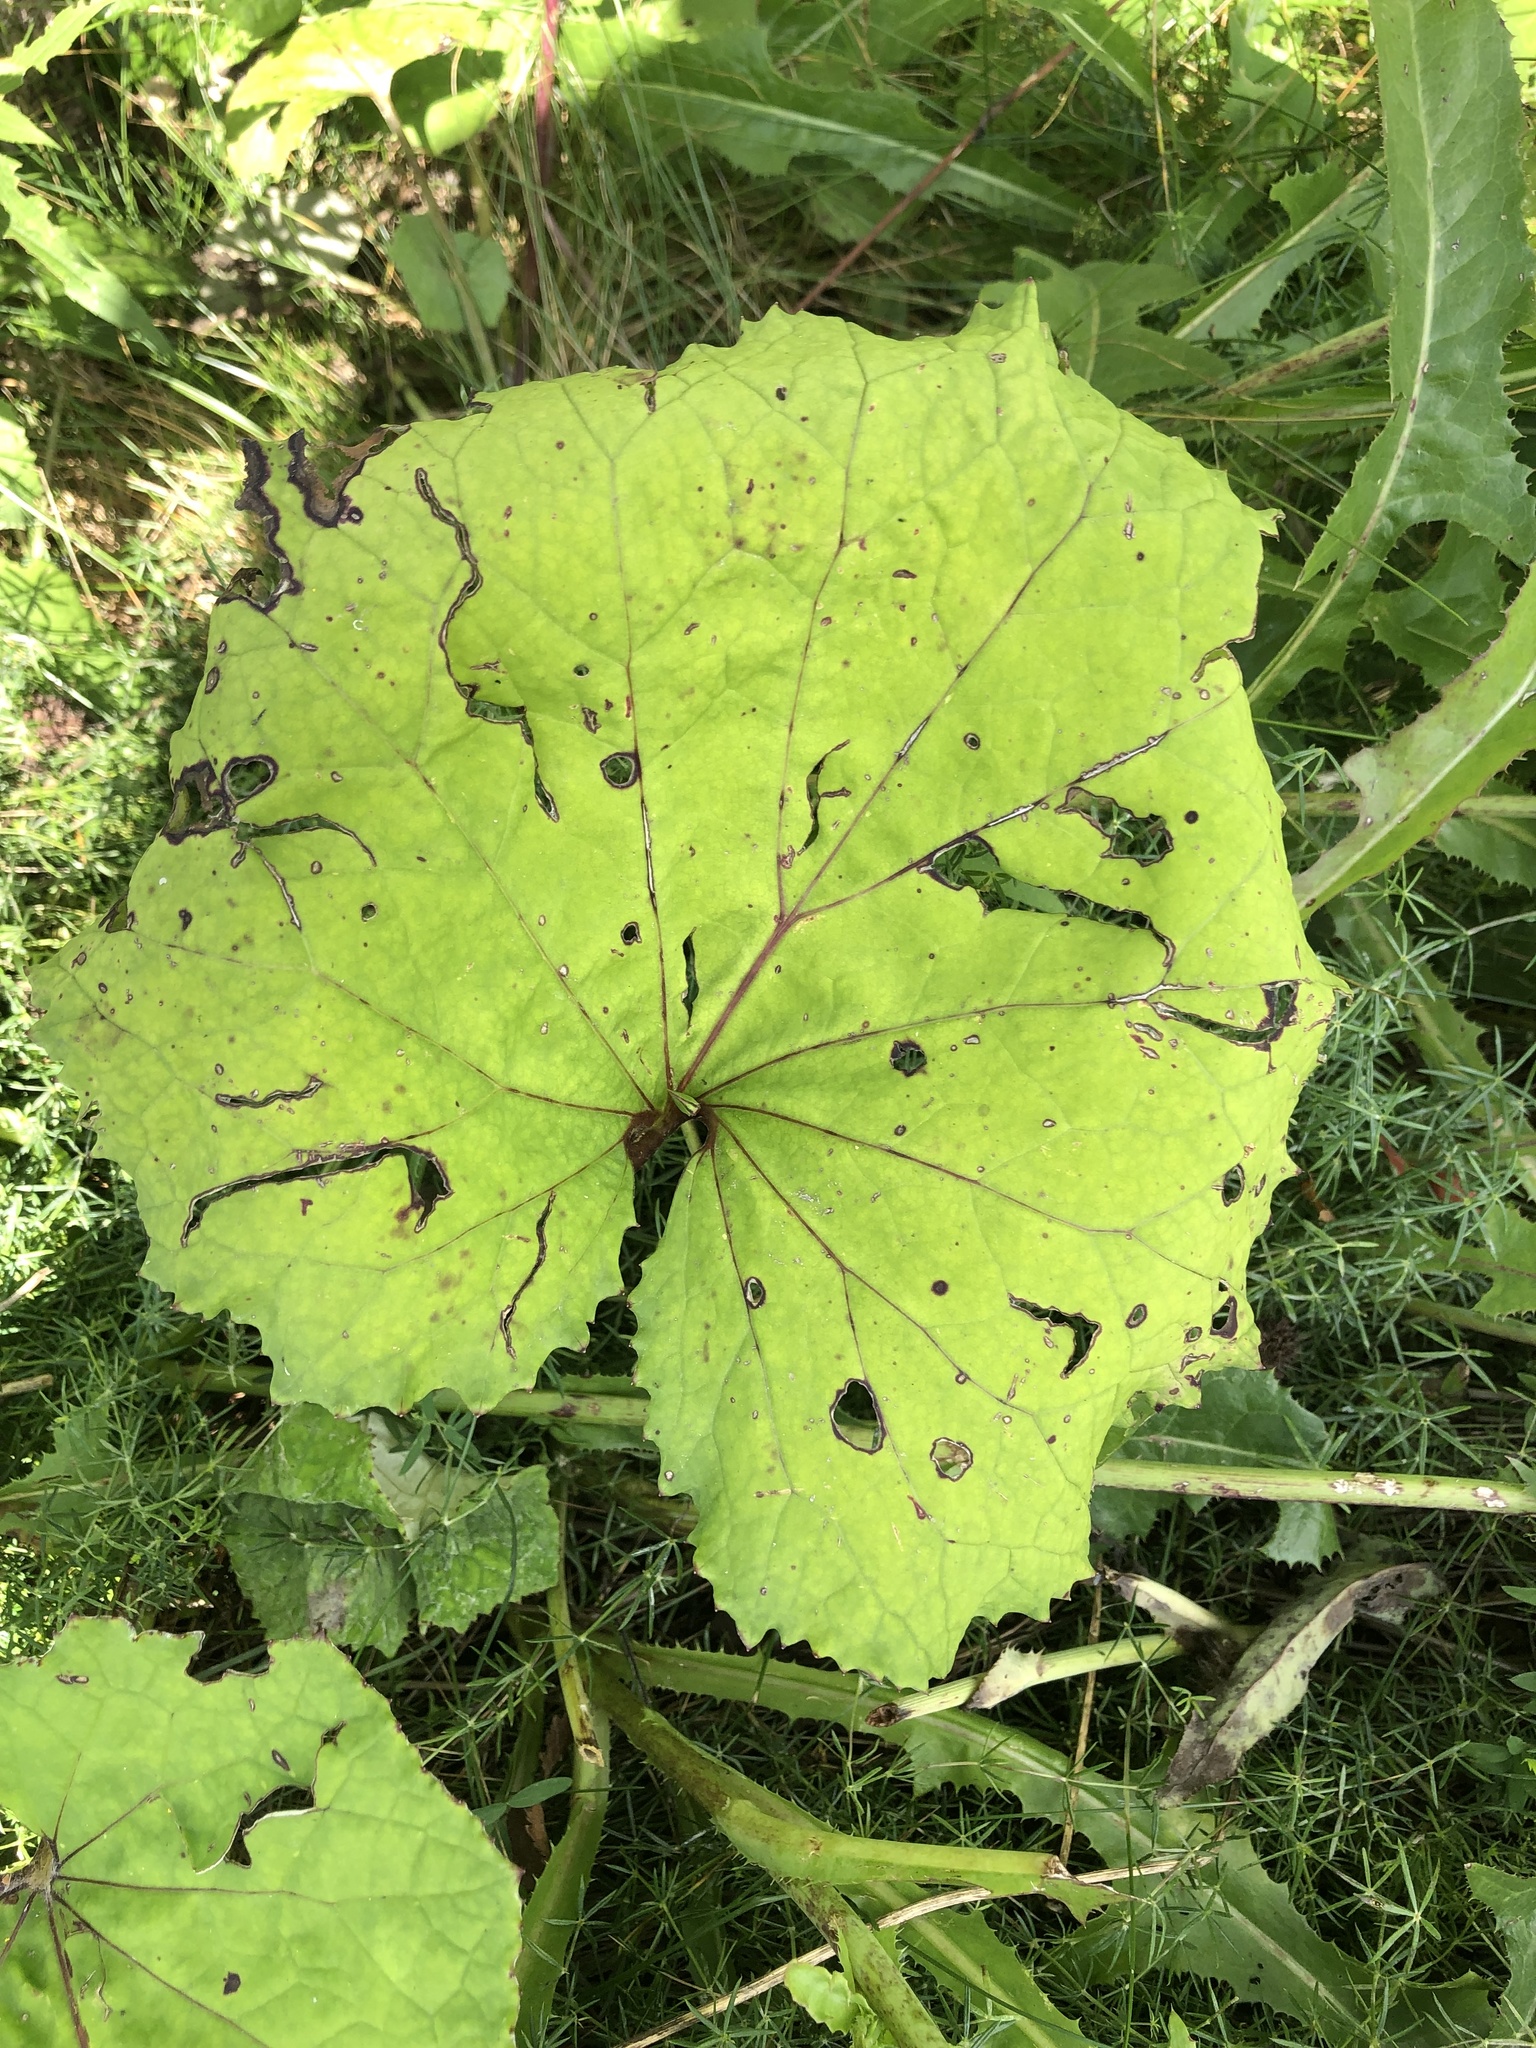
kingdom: Plantae
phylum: Tracheophyta
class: Magnoliopsida
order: Asterales
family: Asteraceae
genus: Tussilago
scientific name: Tussilago farfara
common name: Coltsfoot
